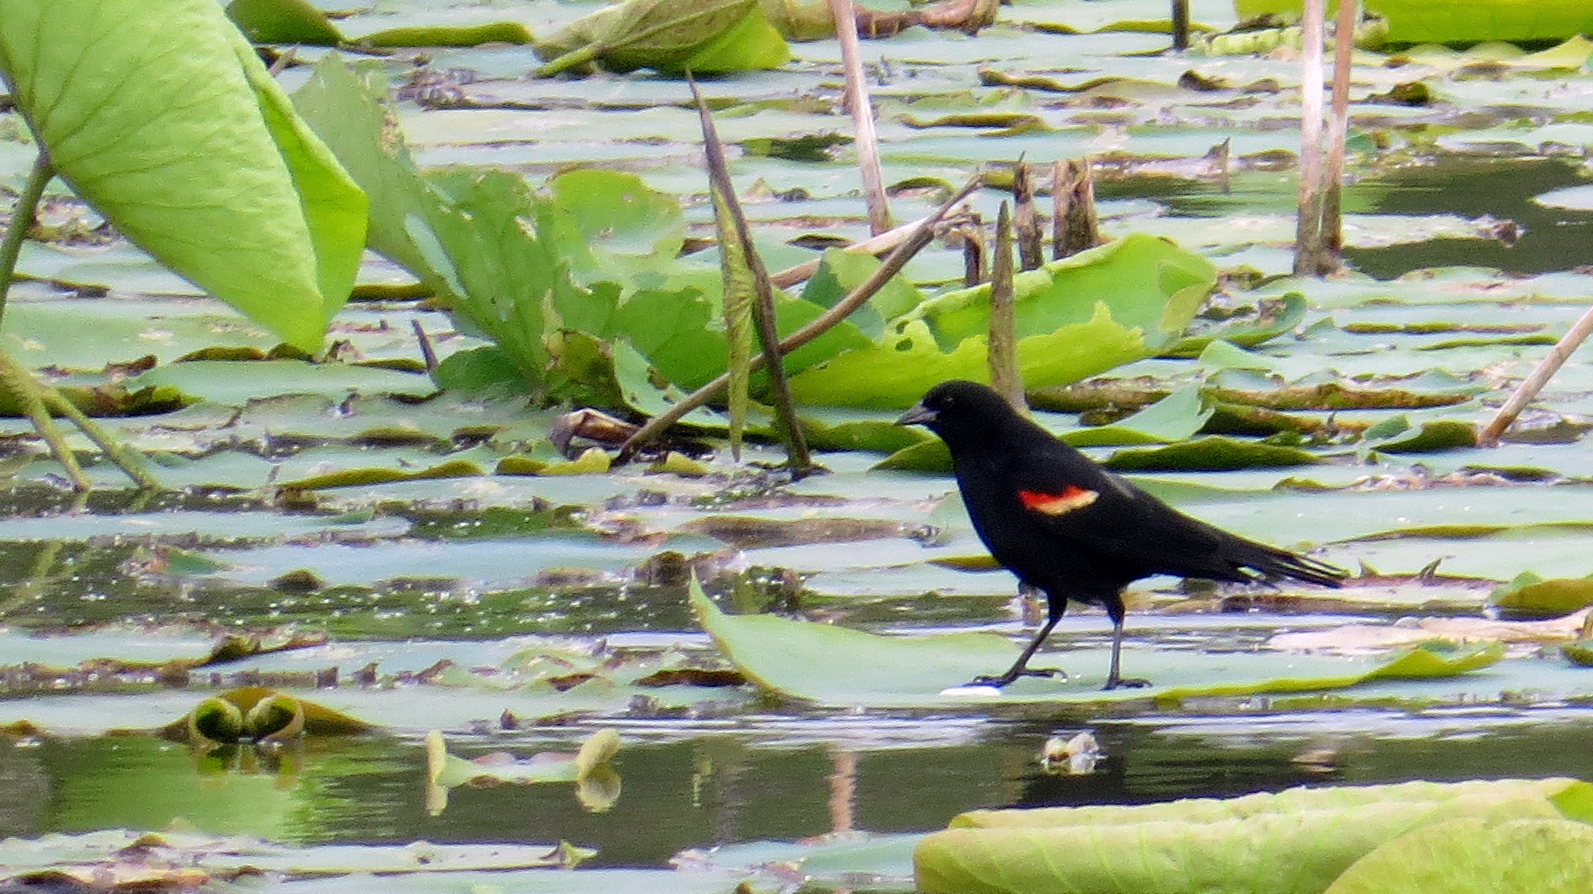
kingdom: Animalia
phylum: Chordata
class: Aves
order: Passeriformes
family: Icteridae
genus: Agelaius
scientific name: Agelaius phoeniceus
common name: Red-winged blackbird
